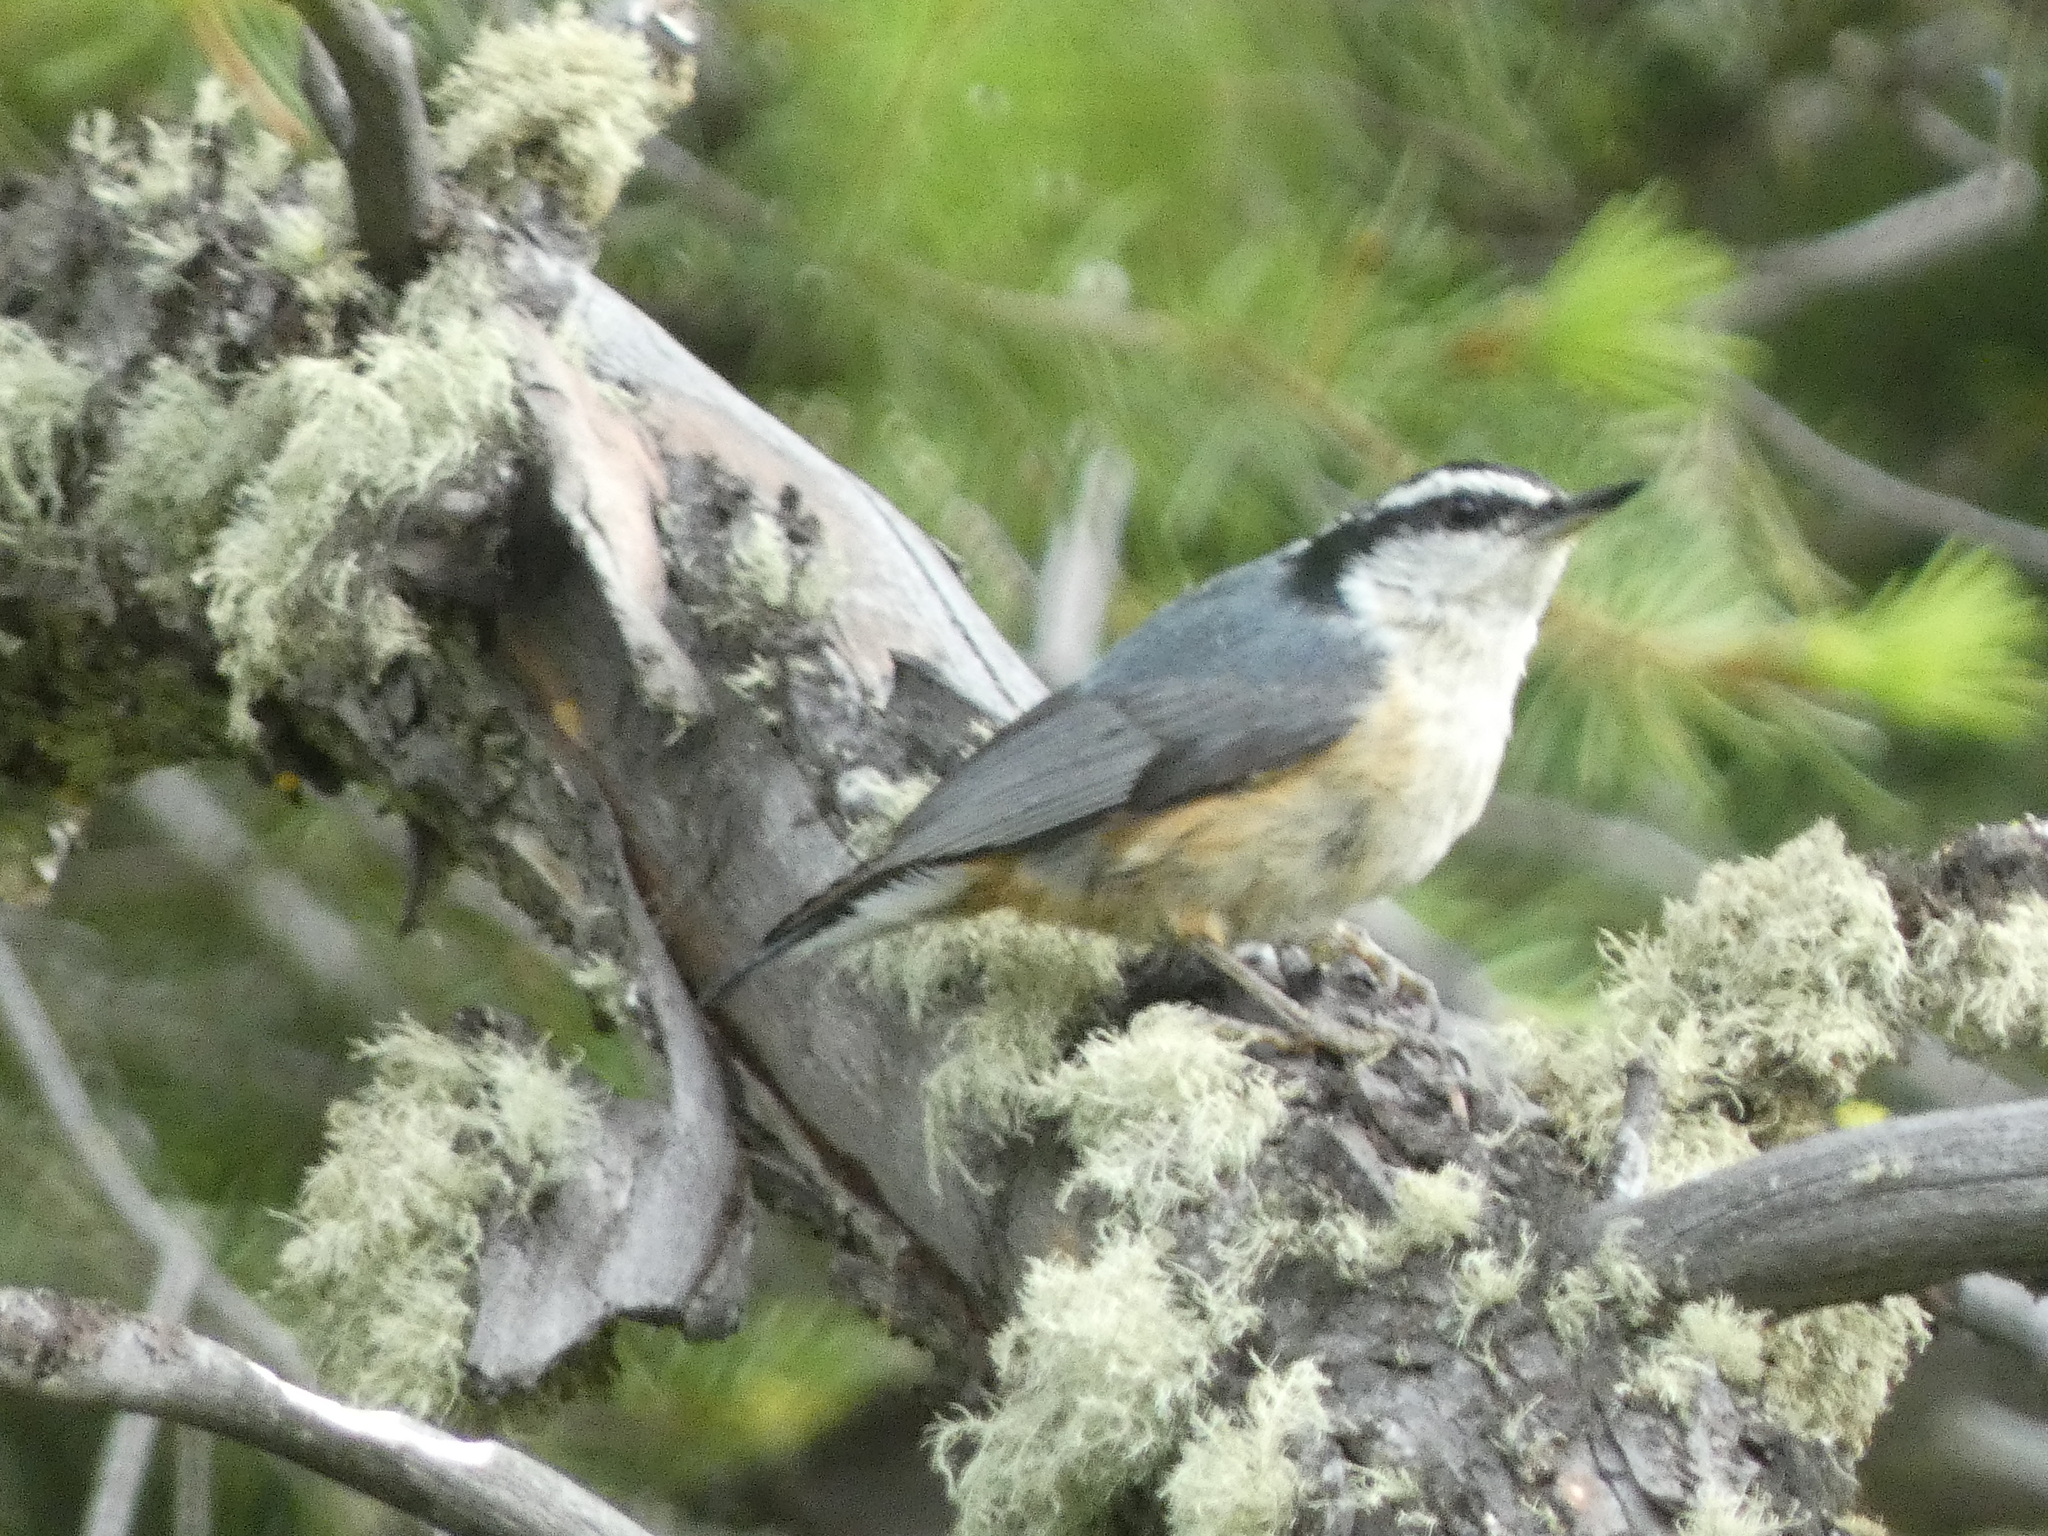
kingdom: Animalia
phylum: Chordata
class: Aves
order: Passeriformes
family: Sittidae
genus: Sitta
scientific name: Sitta canadensis
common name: Red-breasted nuthatch
